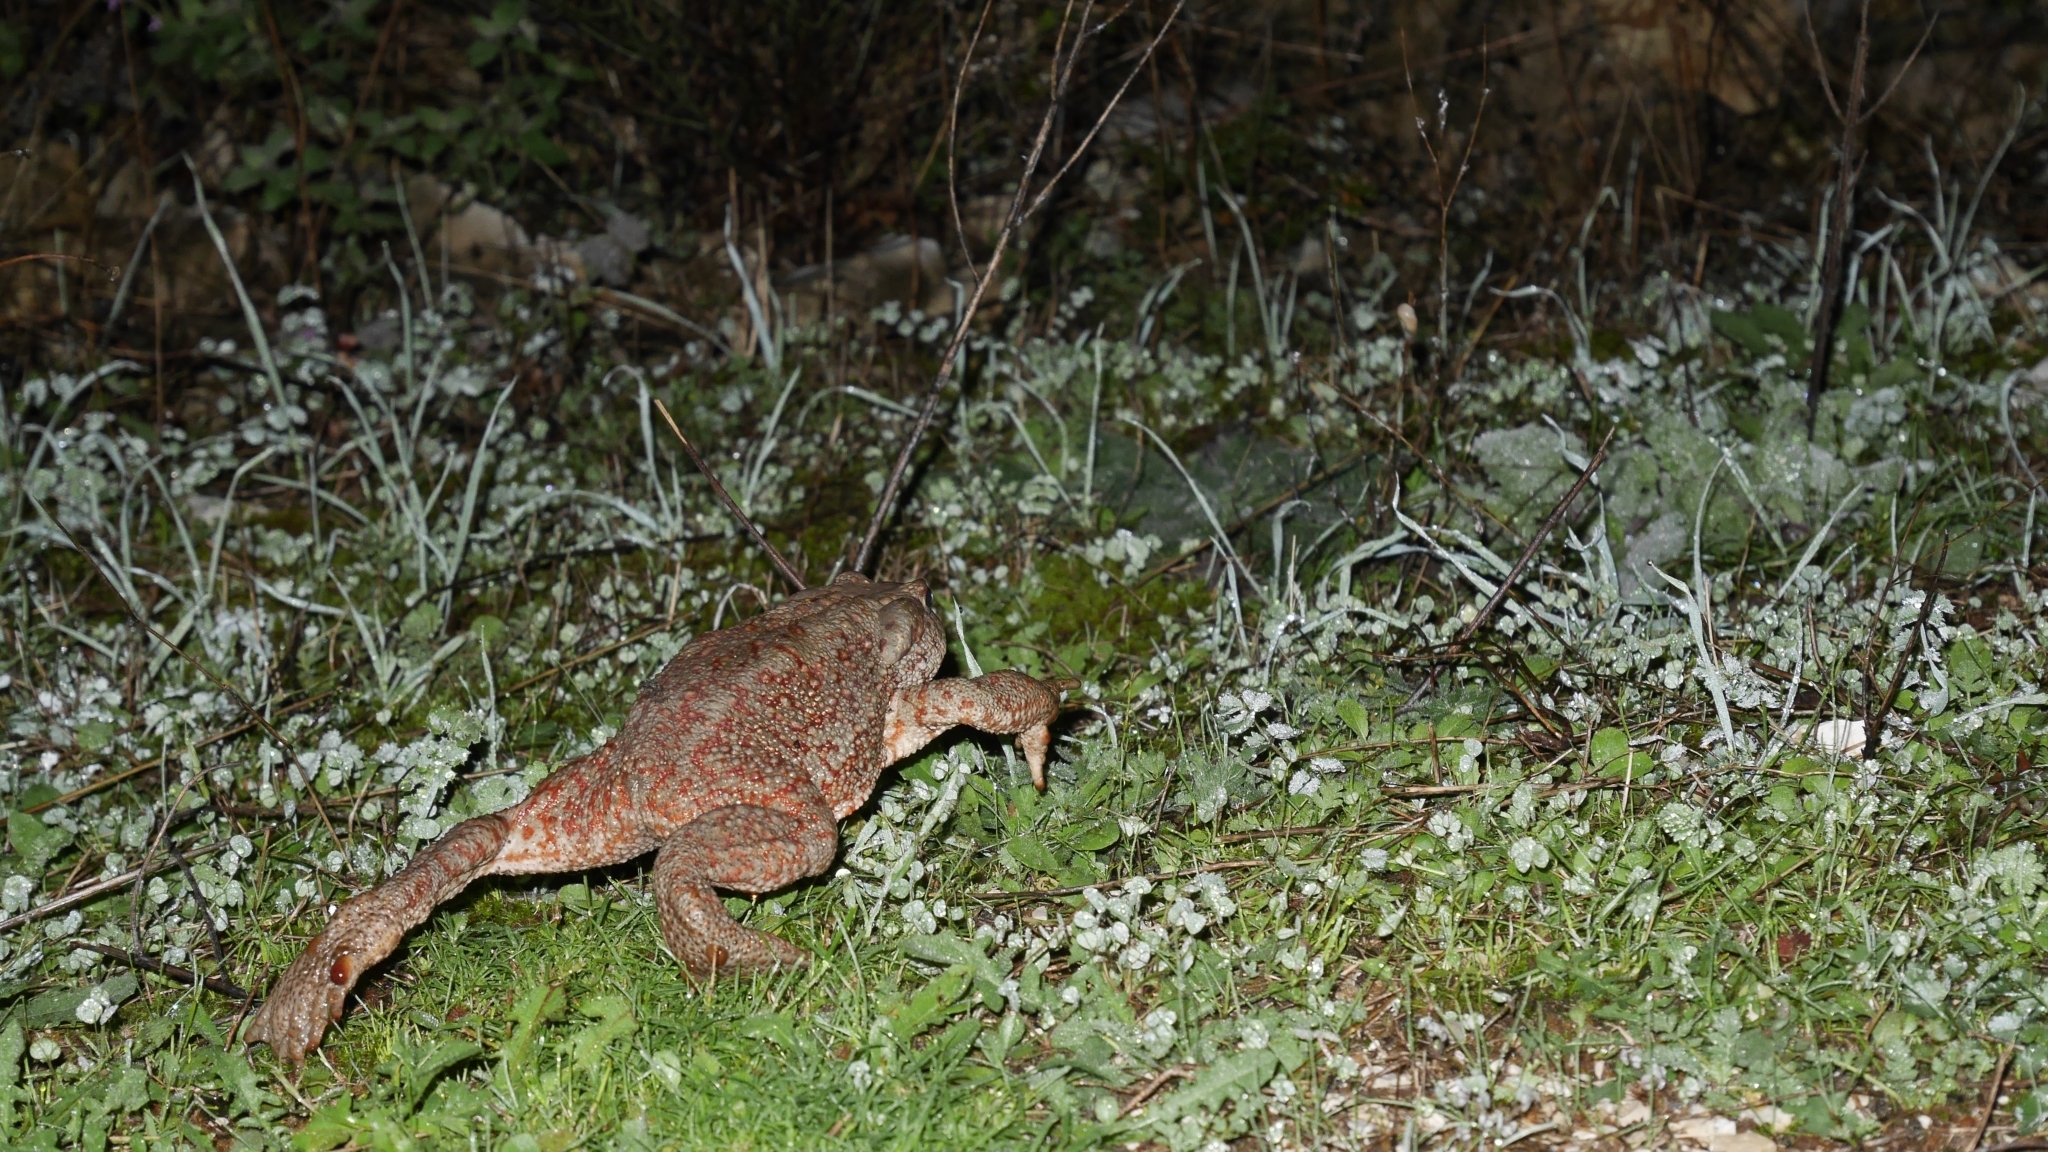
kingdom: Animalia
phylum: Chordata
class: Amphibia
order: Anura
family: Bufonidae
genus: Bufo
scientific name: Bufo bufo
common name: Common toad
